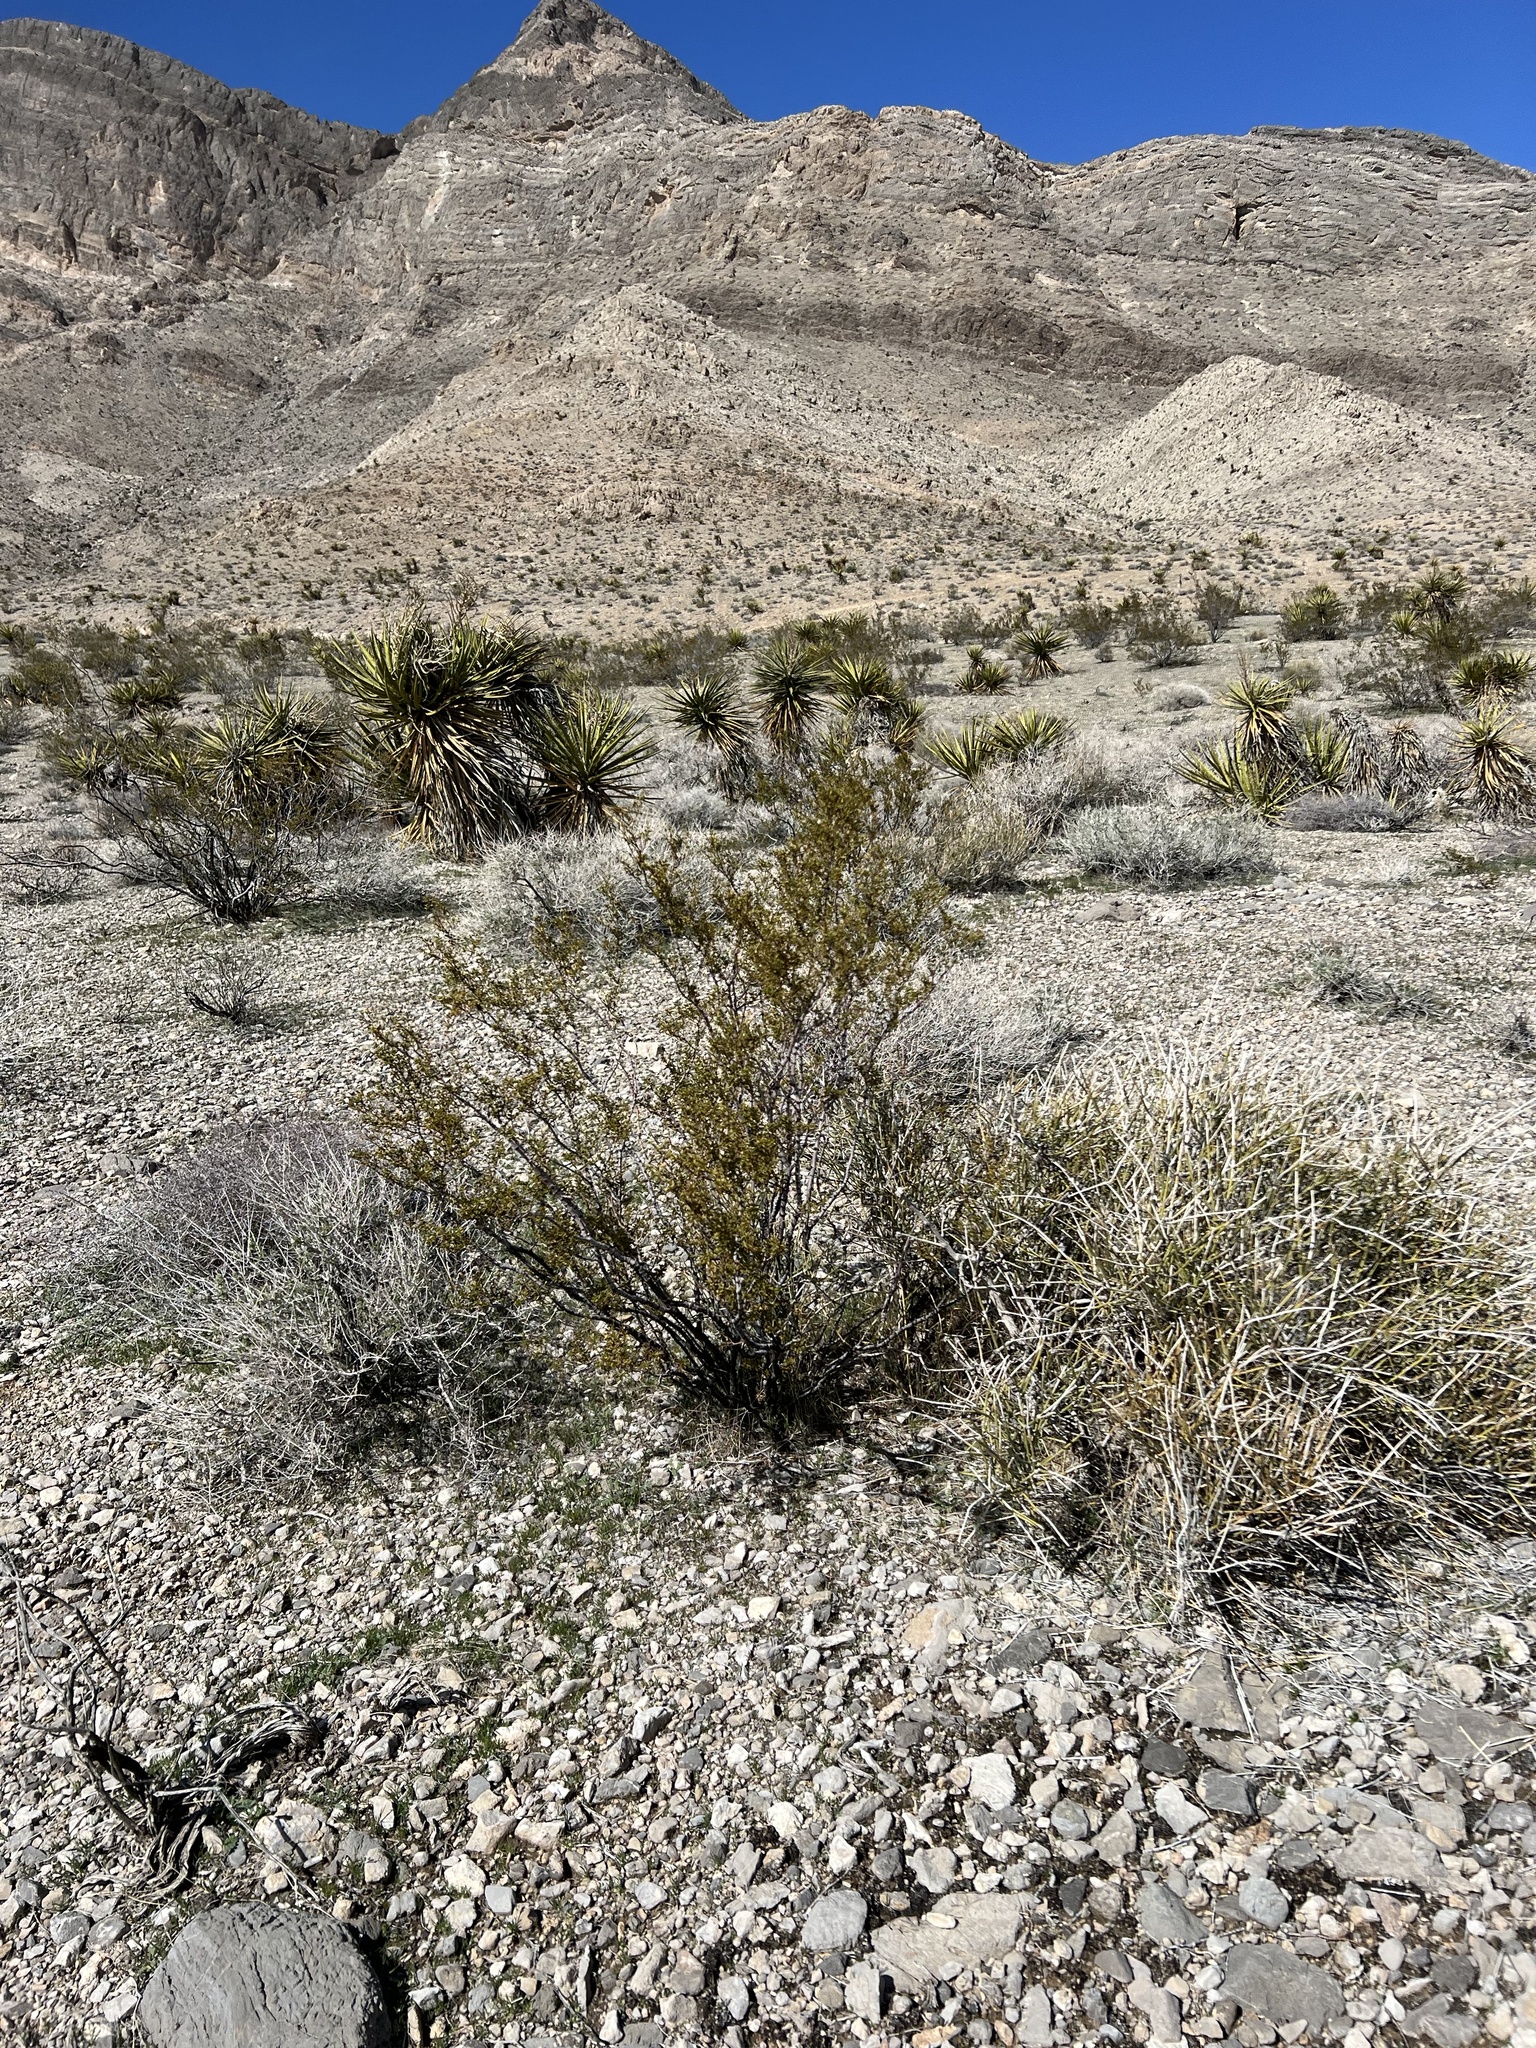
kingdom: Plantae
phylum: Tracheophyta
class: Magnoliopsida
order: Zygophyllales
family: Zygophyllaceae
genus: Larrea
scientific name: Larrea tridentata
